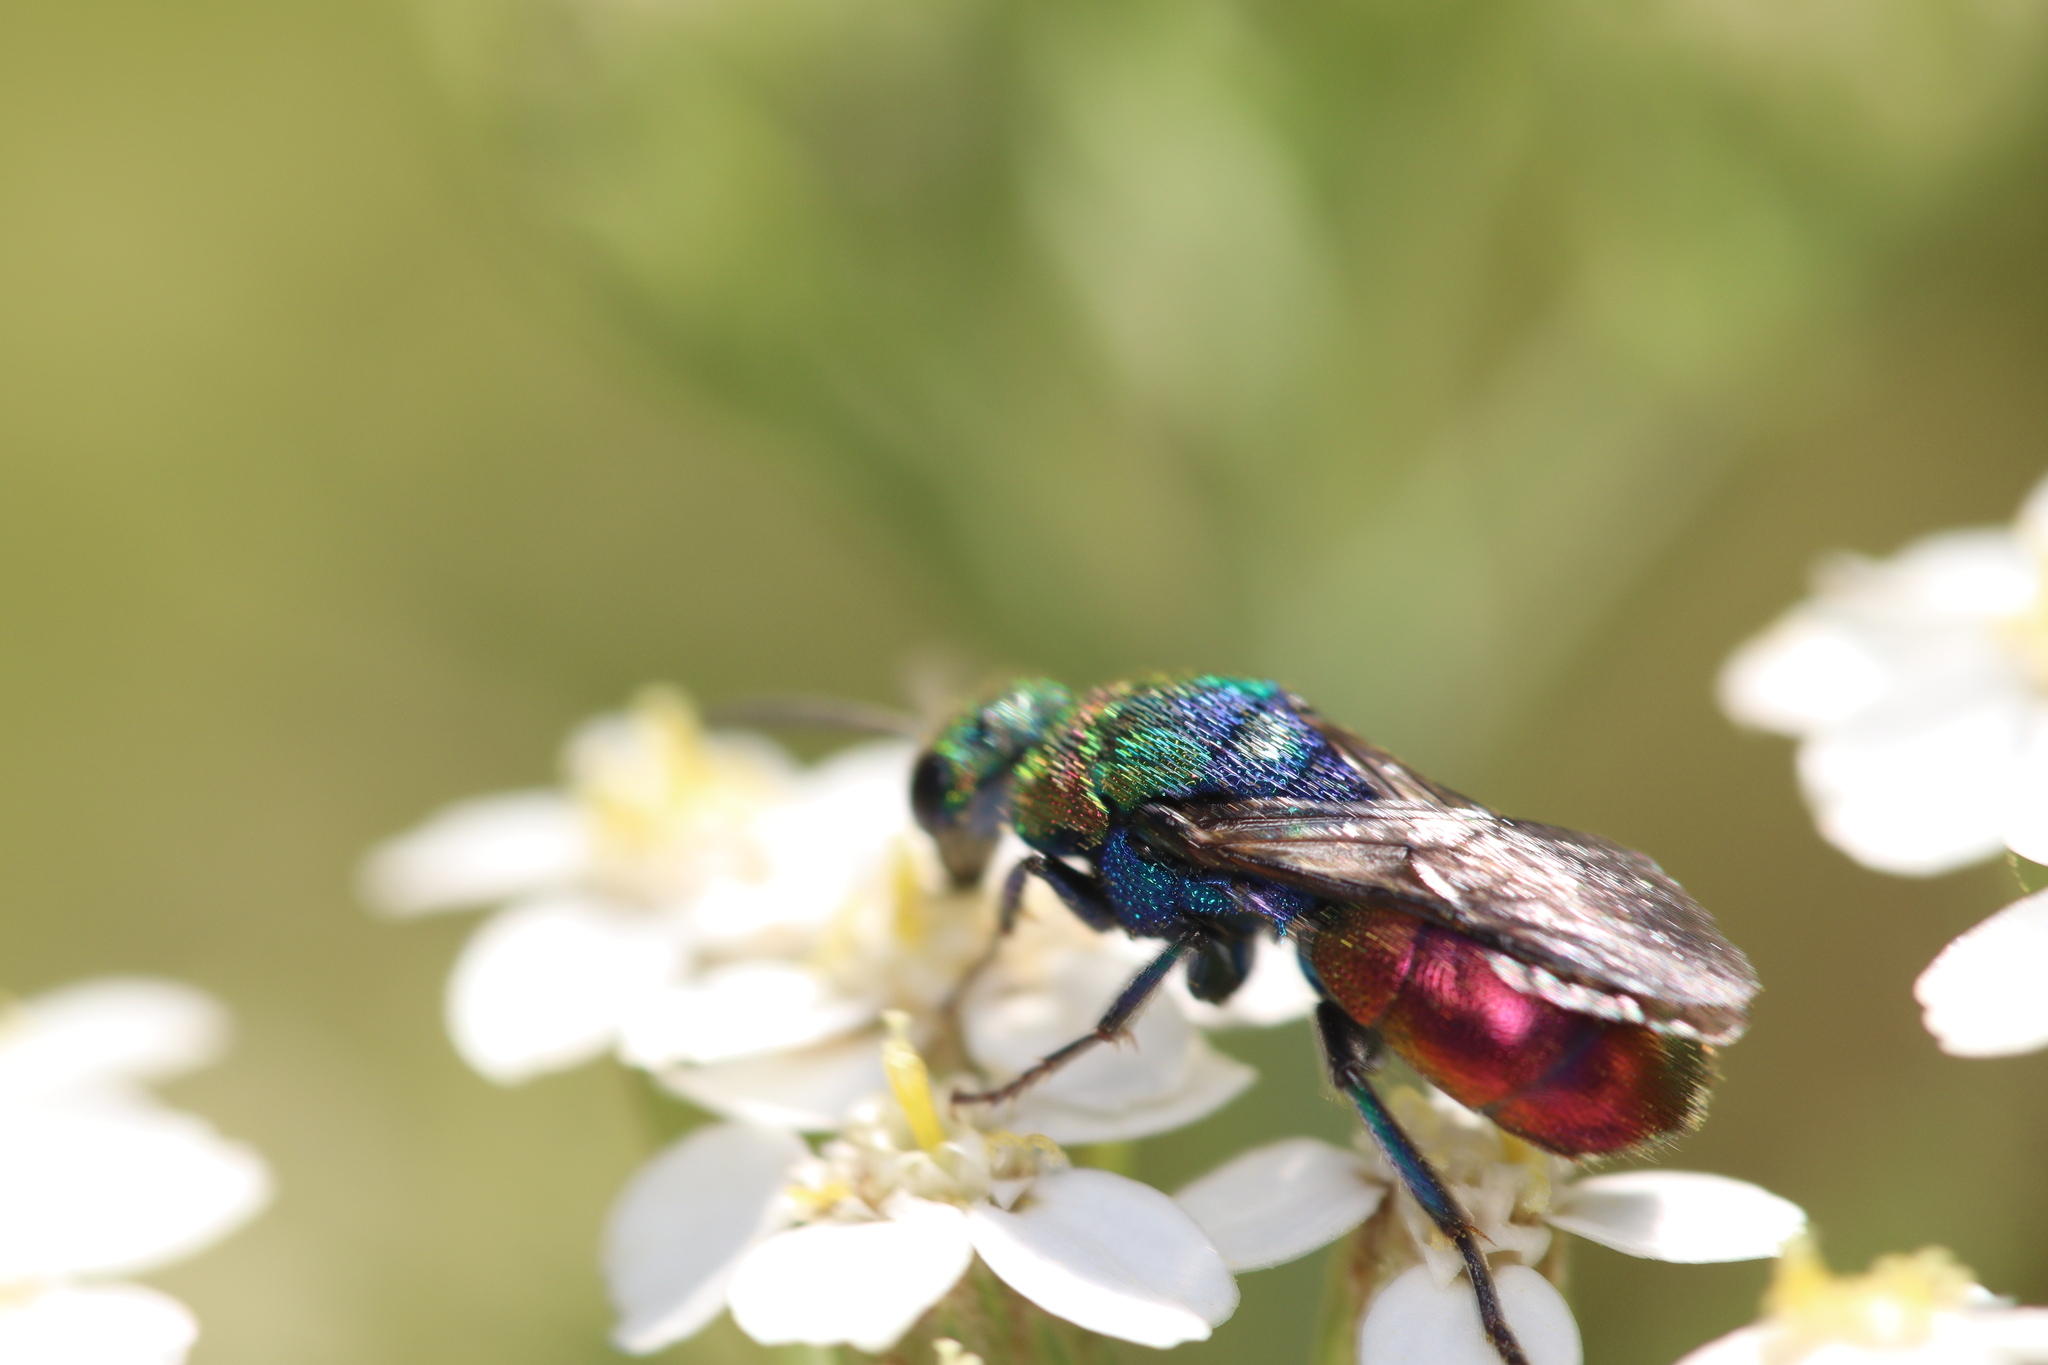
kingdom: Animalia
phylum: Arthropoda
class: Insecta
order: Hymenoptera
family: Chrysididae
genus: Hedychrum
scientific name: Hedychrum rutilans
